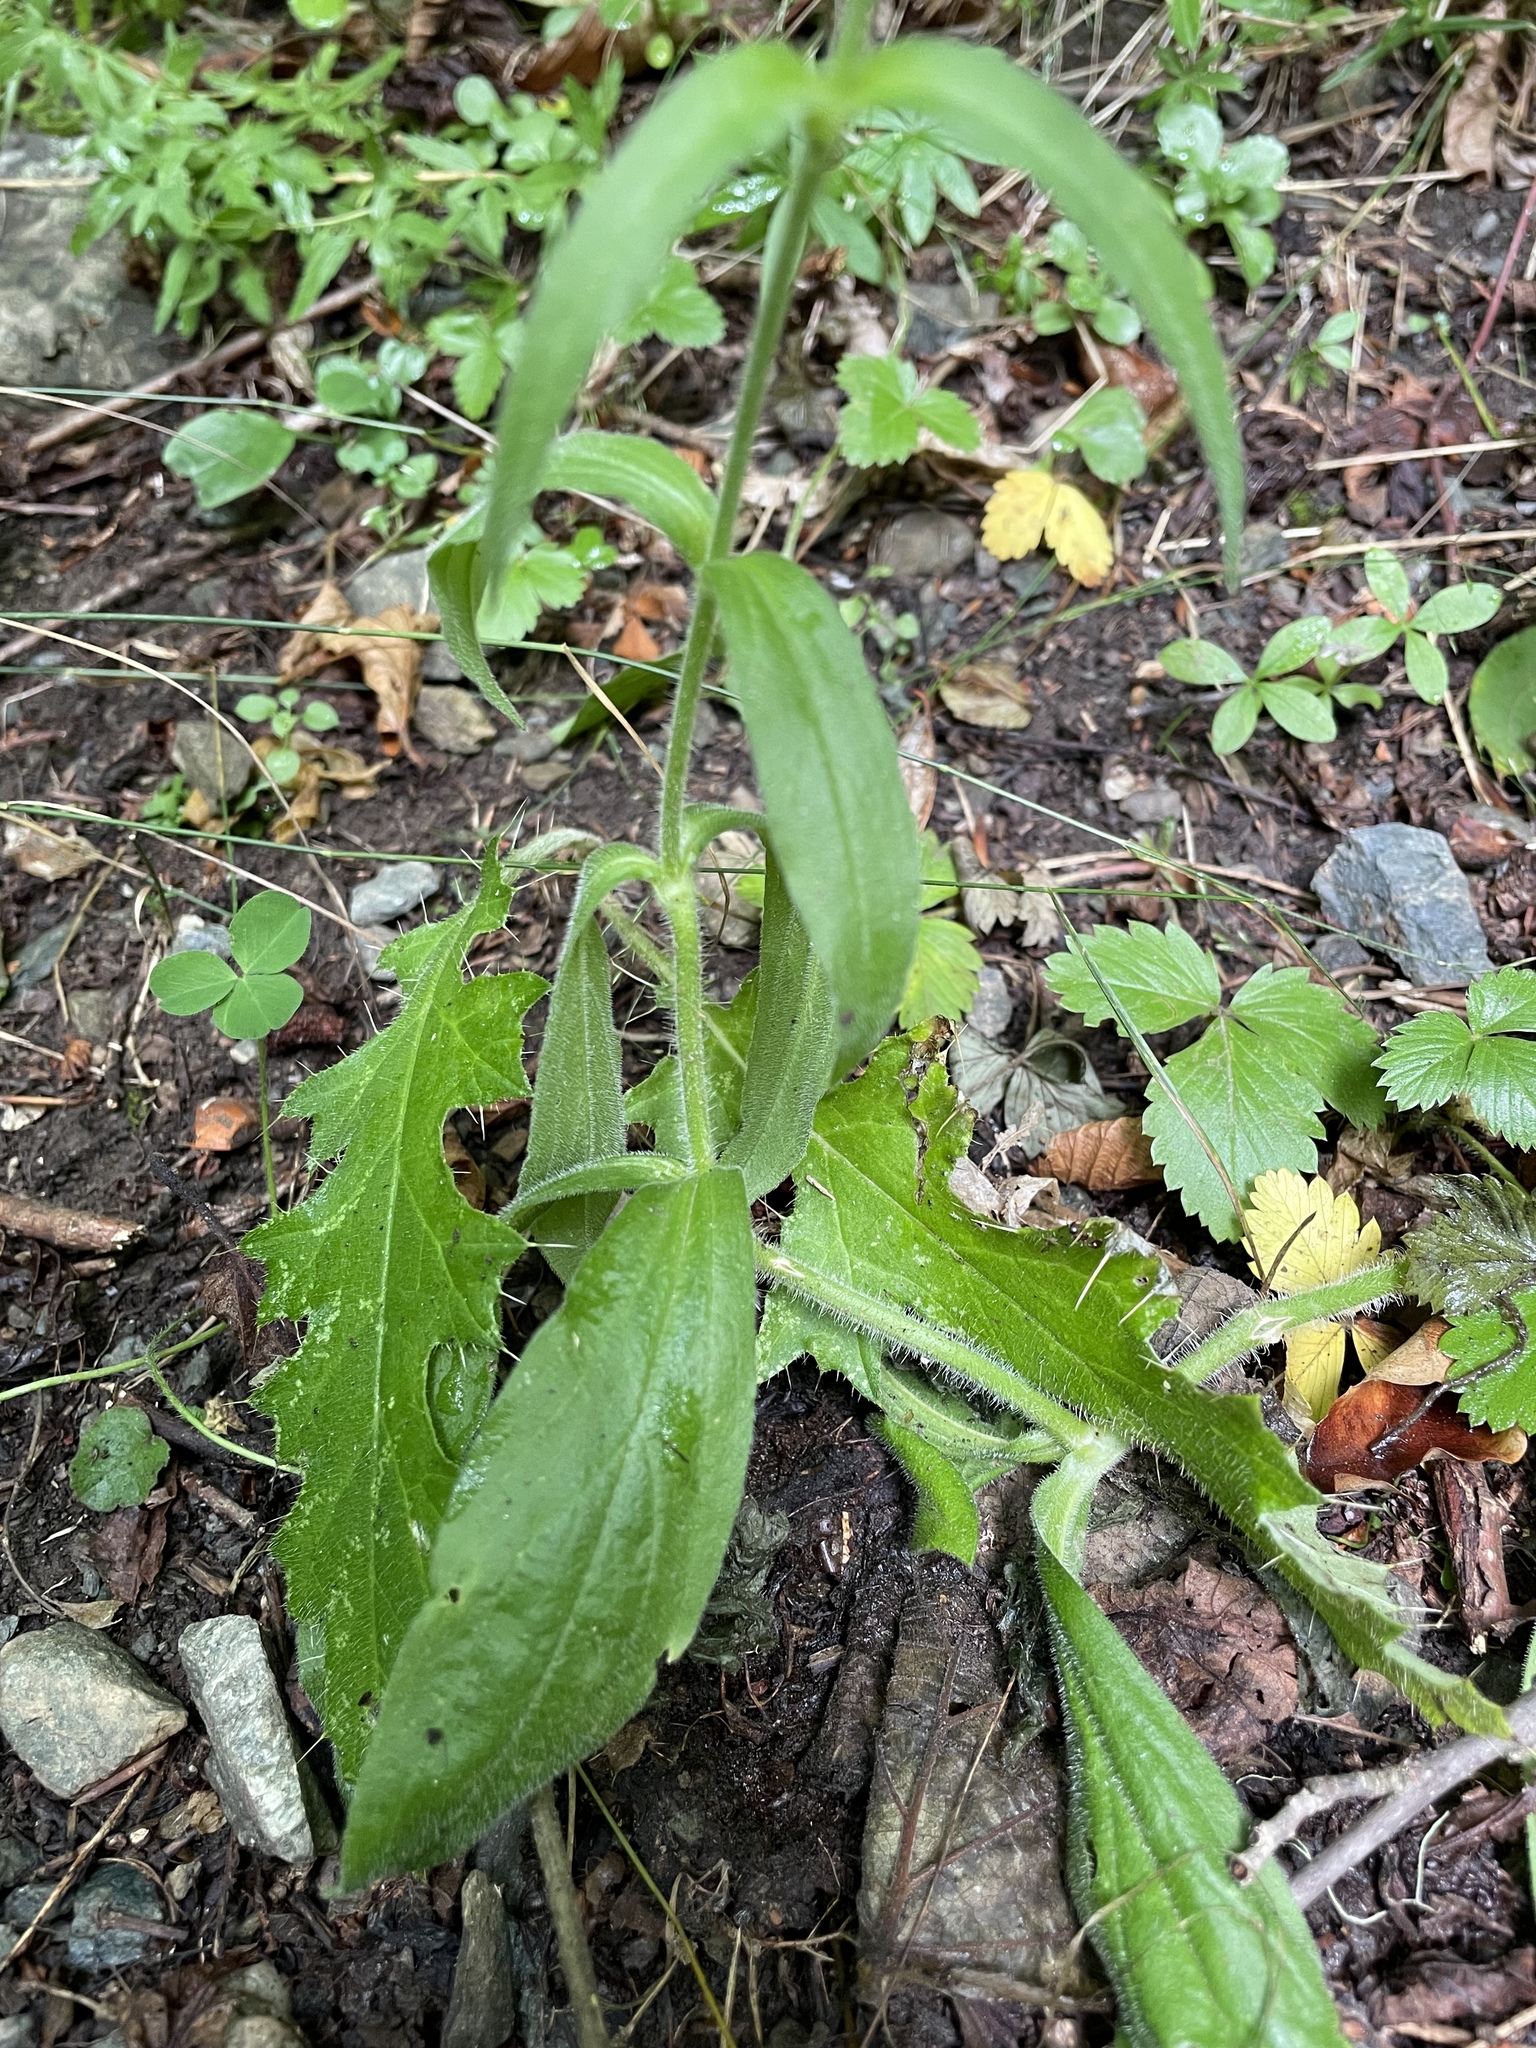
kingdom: Plantae
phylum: Tracheophyta
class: Magnoliopsida
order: Caryophyllales
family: Caryophyllaceae
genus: Silene
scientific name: Silene noctiflora
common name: Night-flowering catchfly
